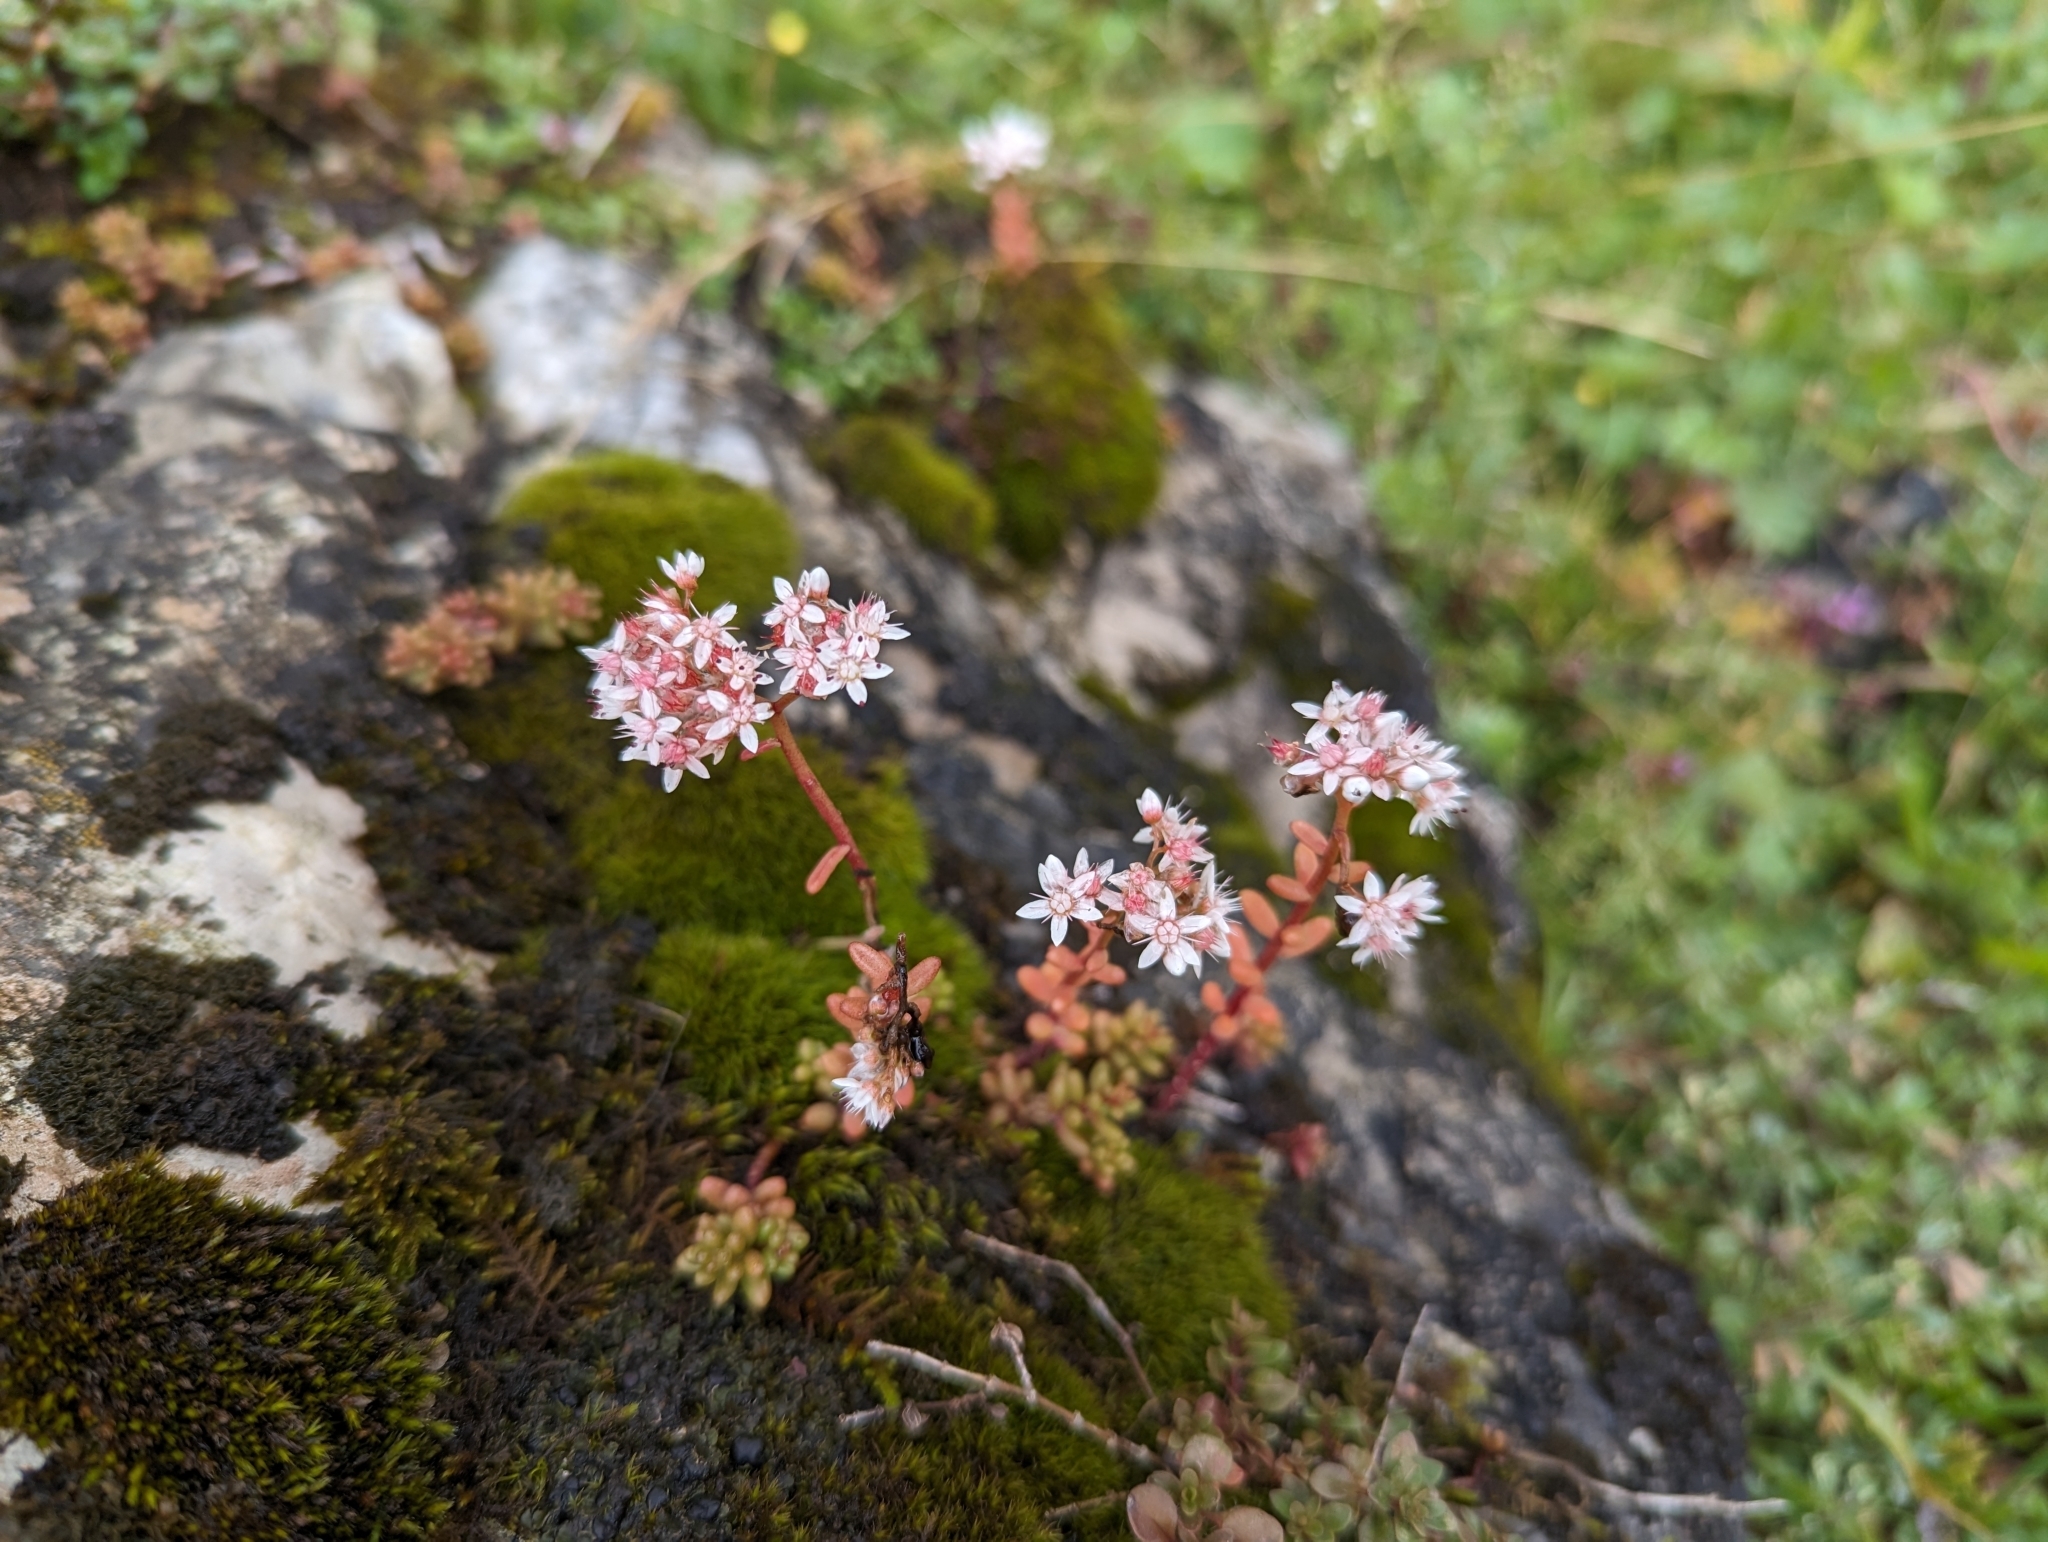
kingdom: Plantae
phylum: Tracheophyta
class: Magnoliopsida
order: Saxifragales
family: Crassulaceae
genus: Sedum
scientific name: Sedum album
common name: White stonecrop
